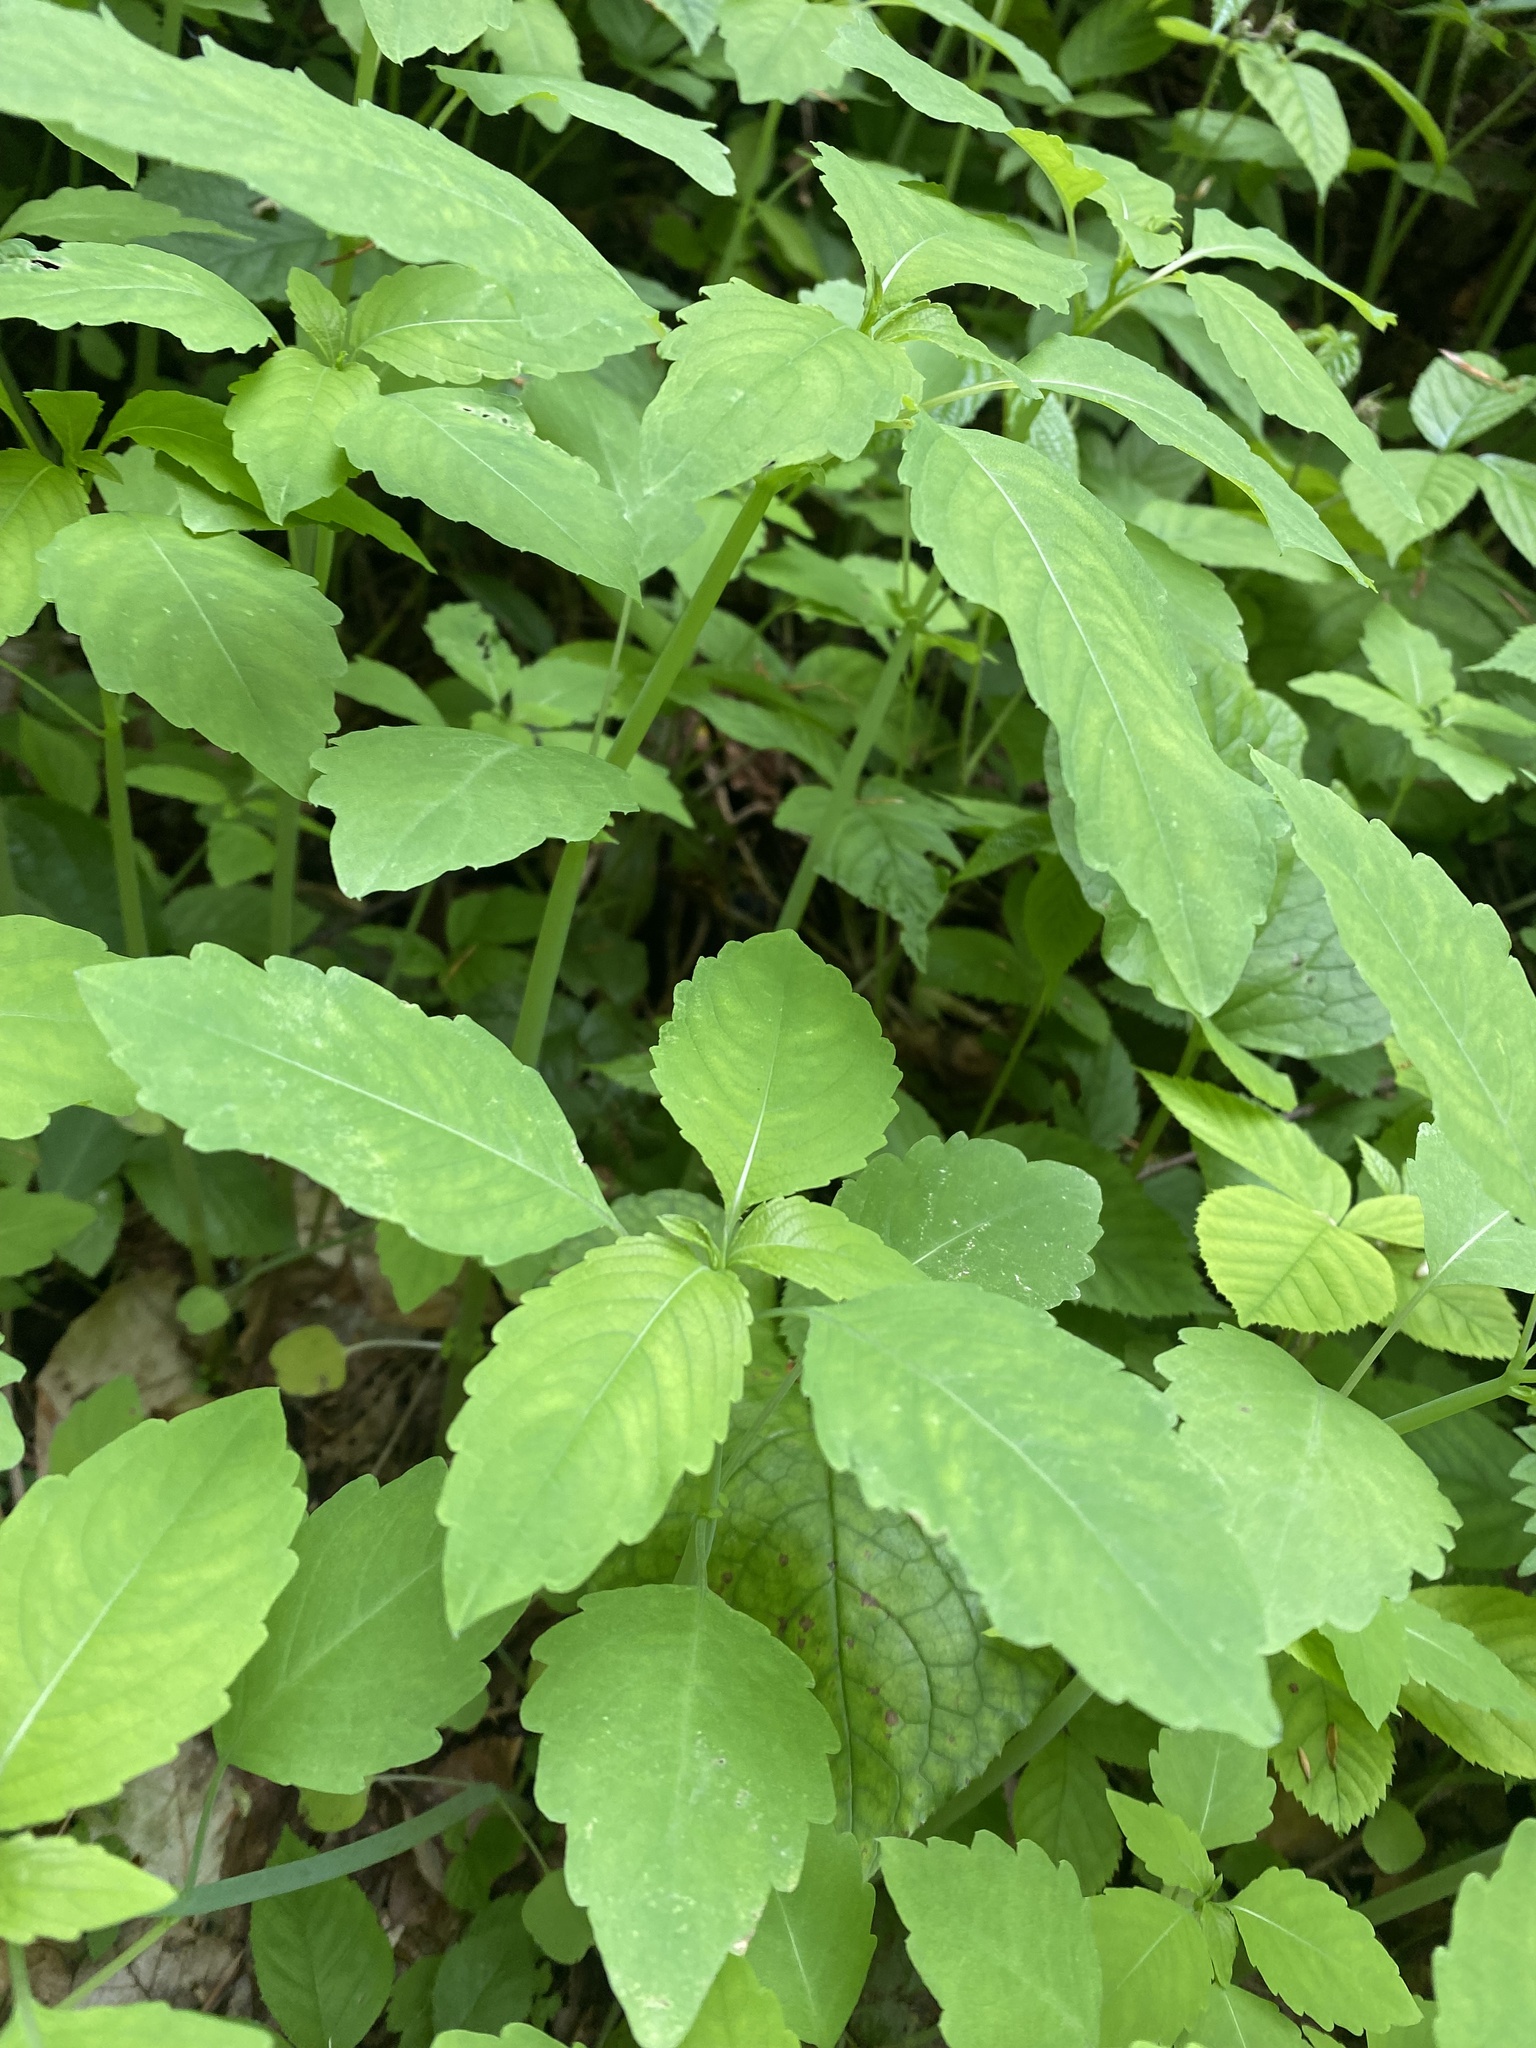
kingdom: Plantae
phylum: Tracheophyta
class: Magnoliopsida
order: Ericales
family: Balsaminaceae
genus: Impatiens
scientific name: Impatiens noli-tangere
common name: Touch-me-not balsam
